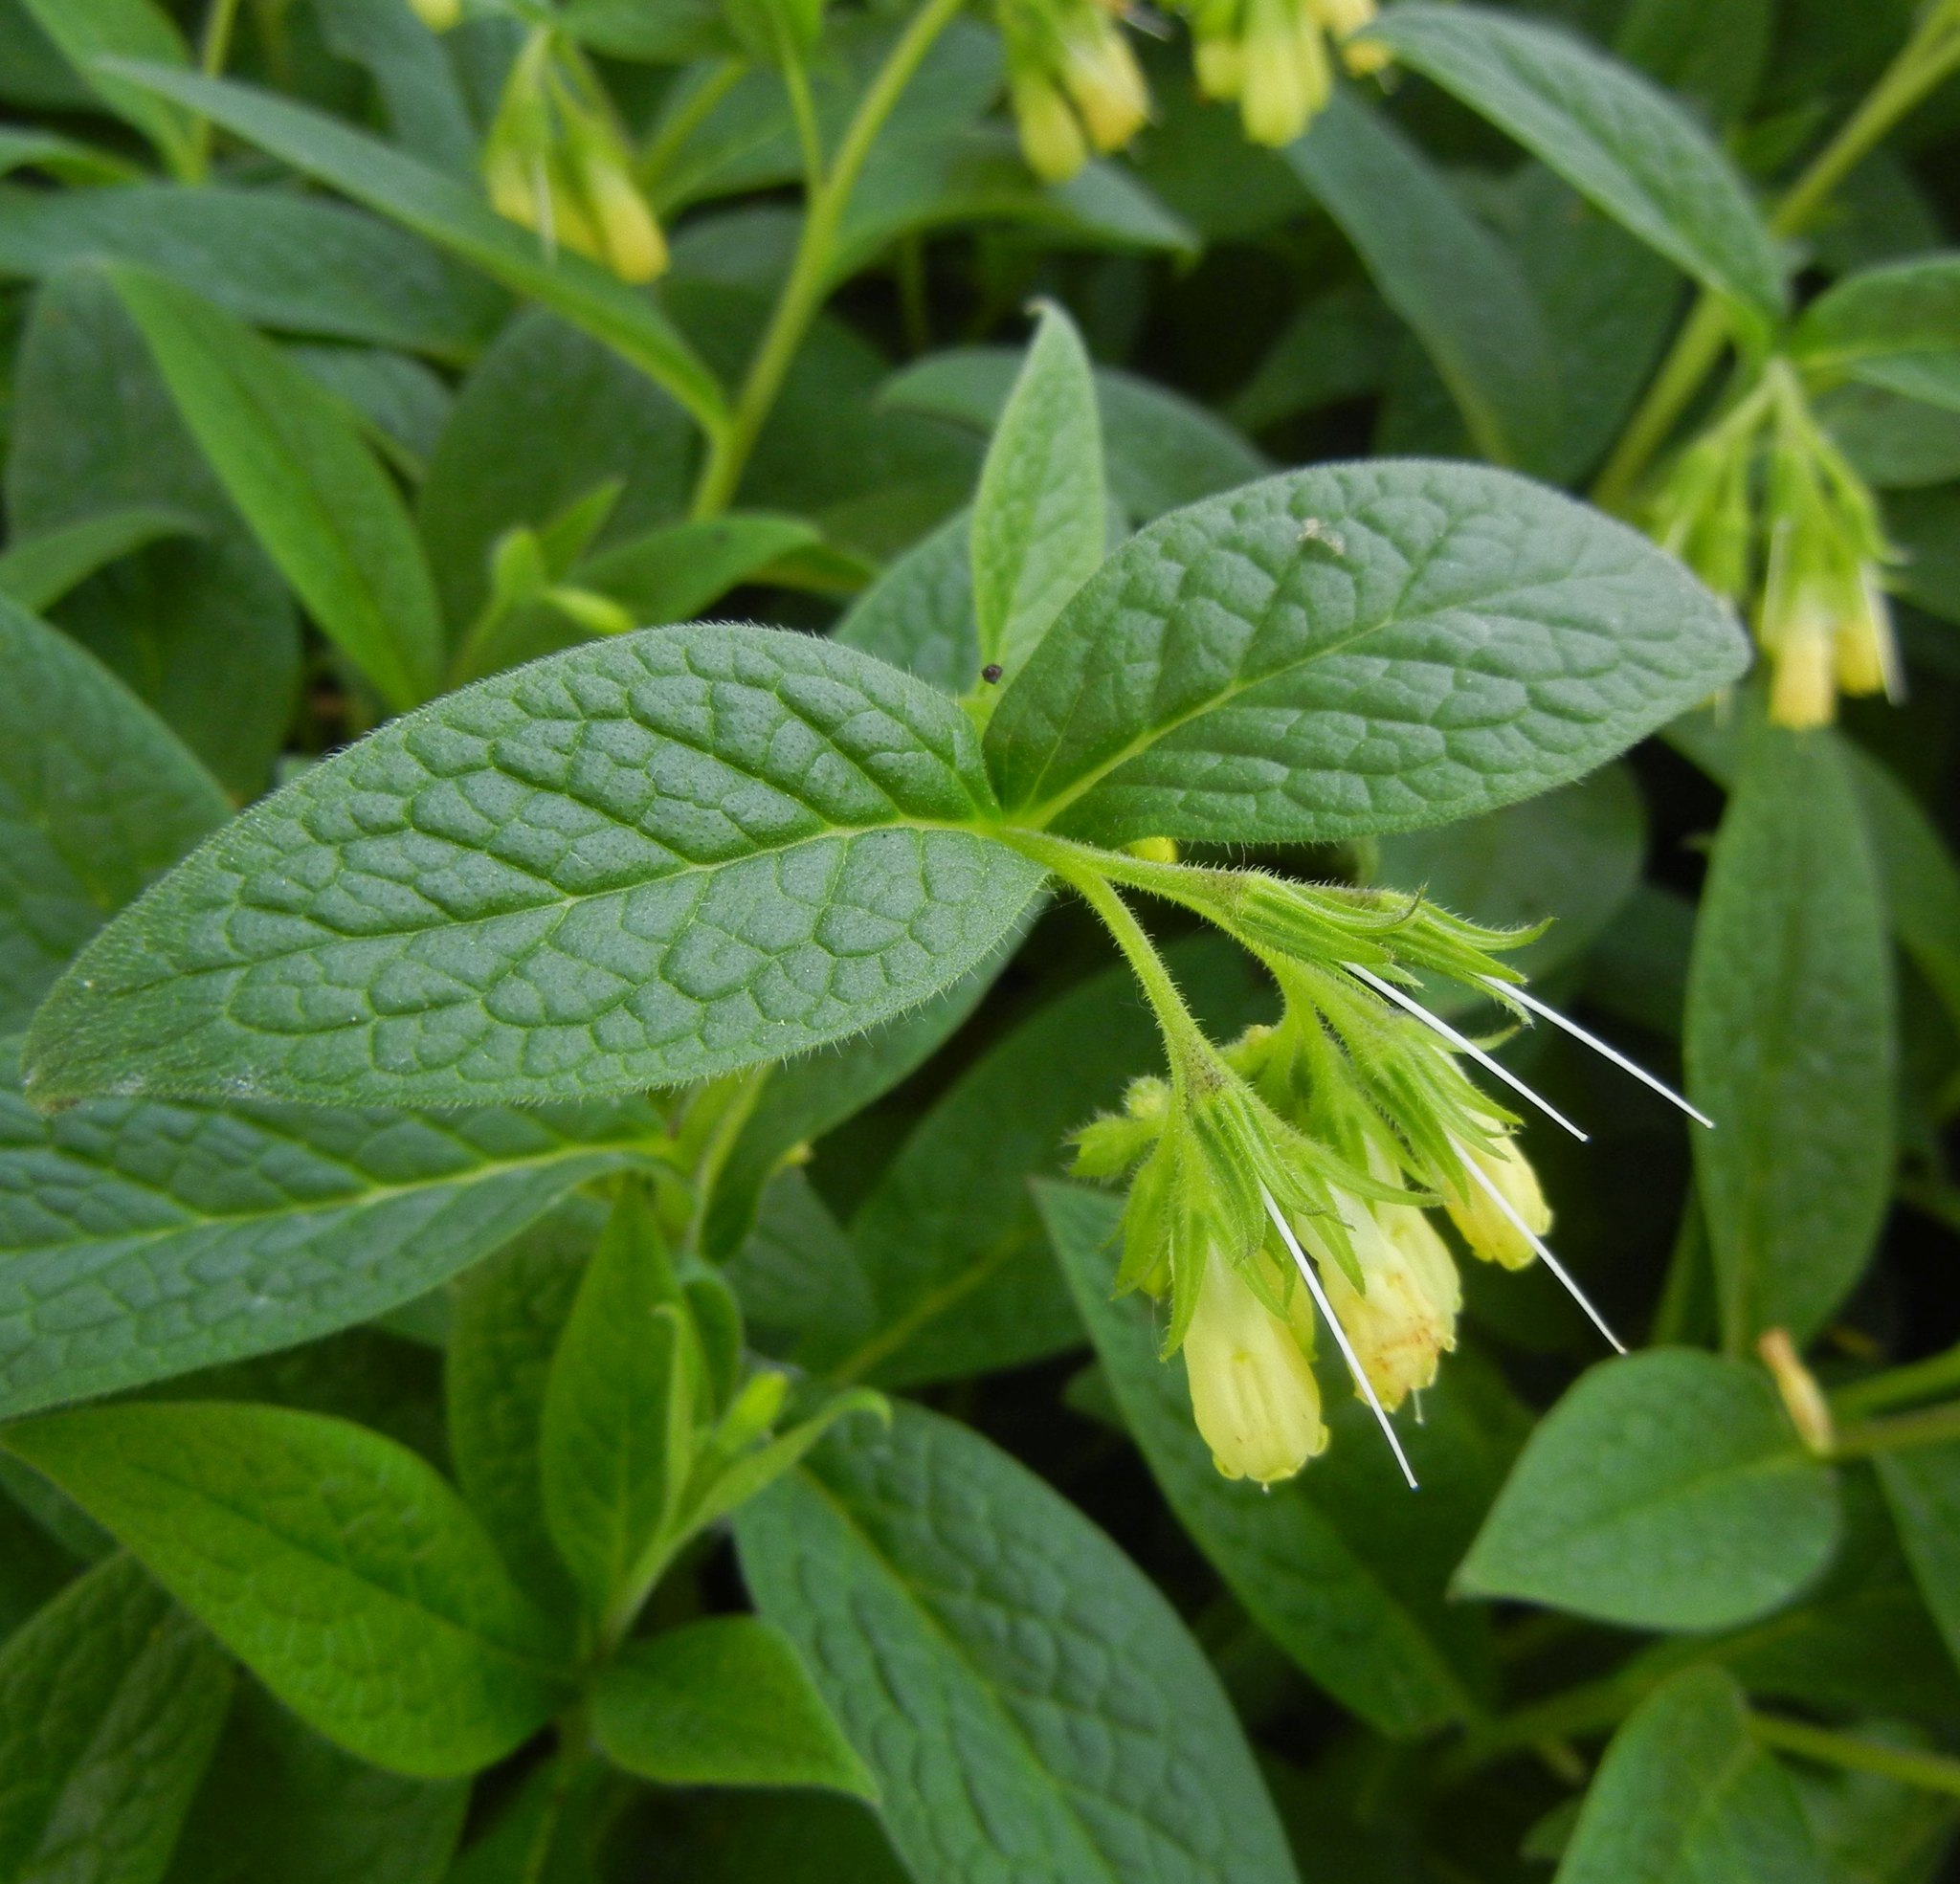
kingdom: Plantae
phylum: Tracheophyta
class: Magnoliopsida
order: Boraginales
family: Boraginaceae
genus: Symphytum
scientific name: Symphytum tuberosum
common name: Tuberous comfrey
